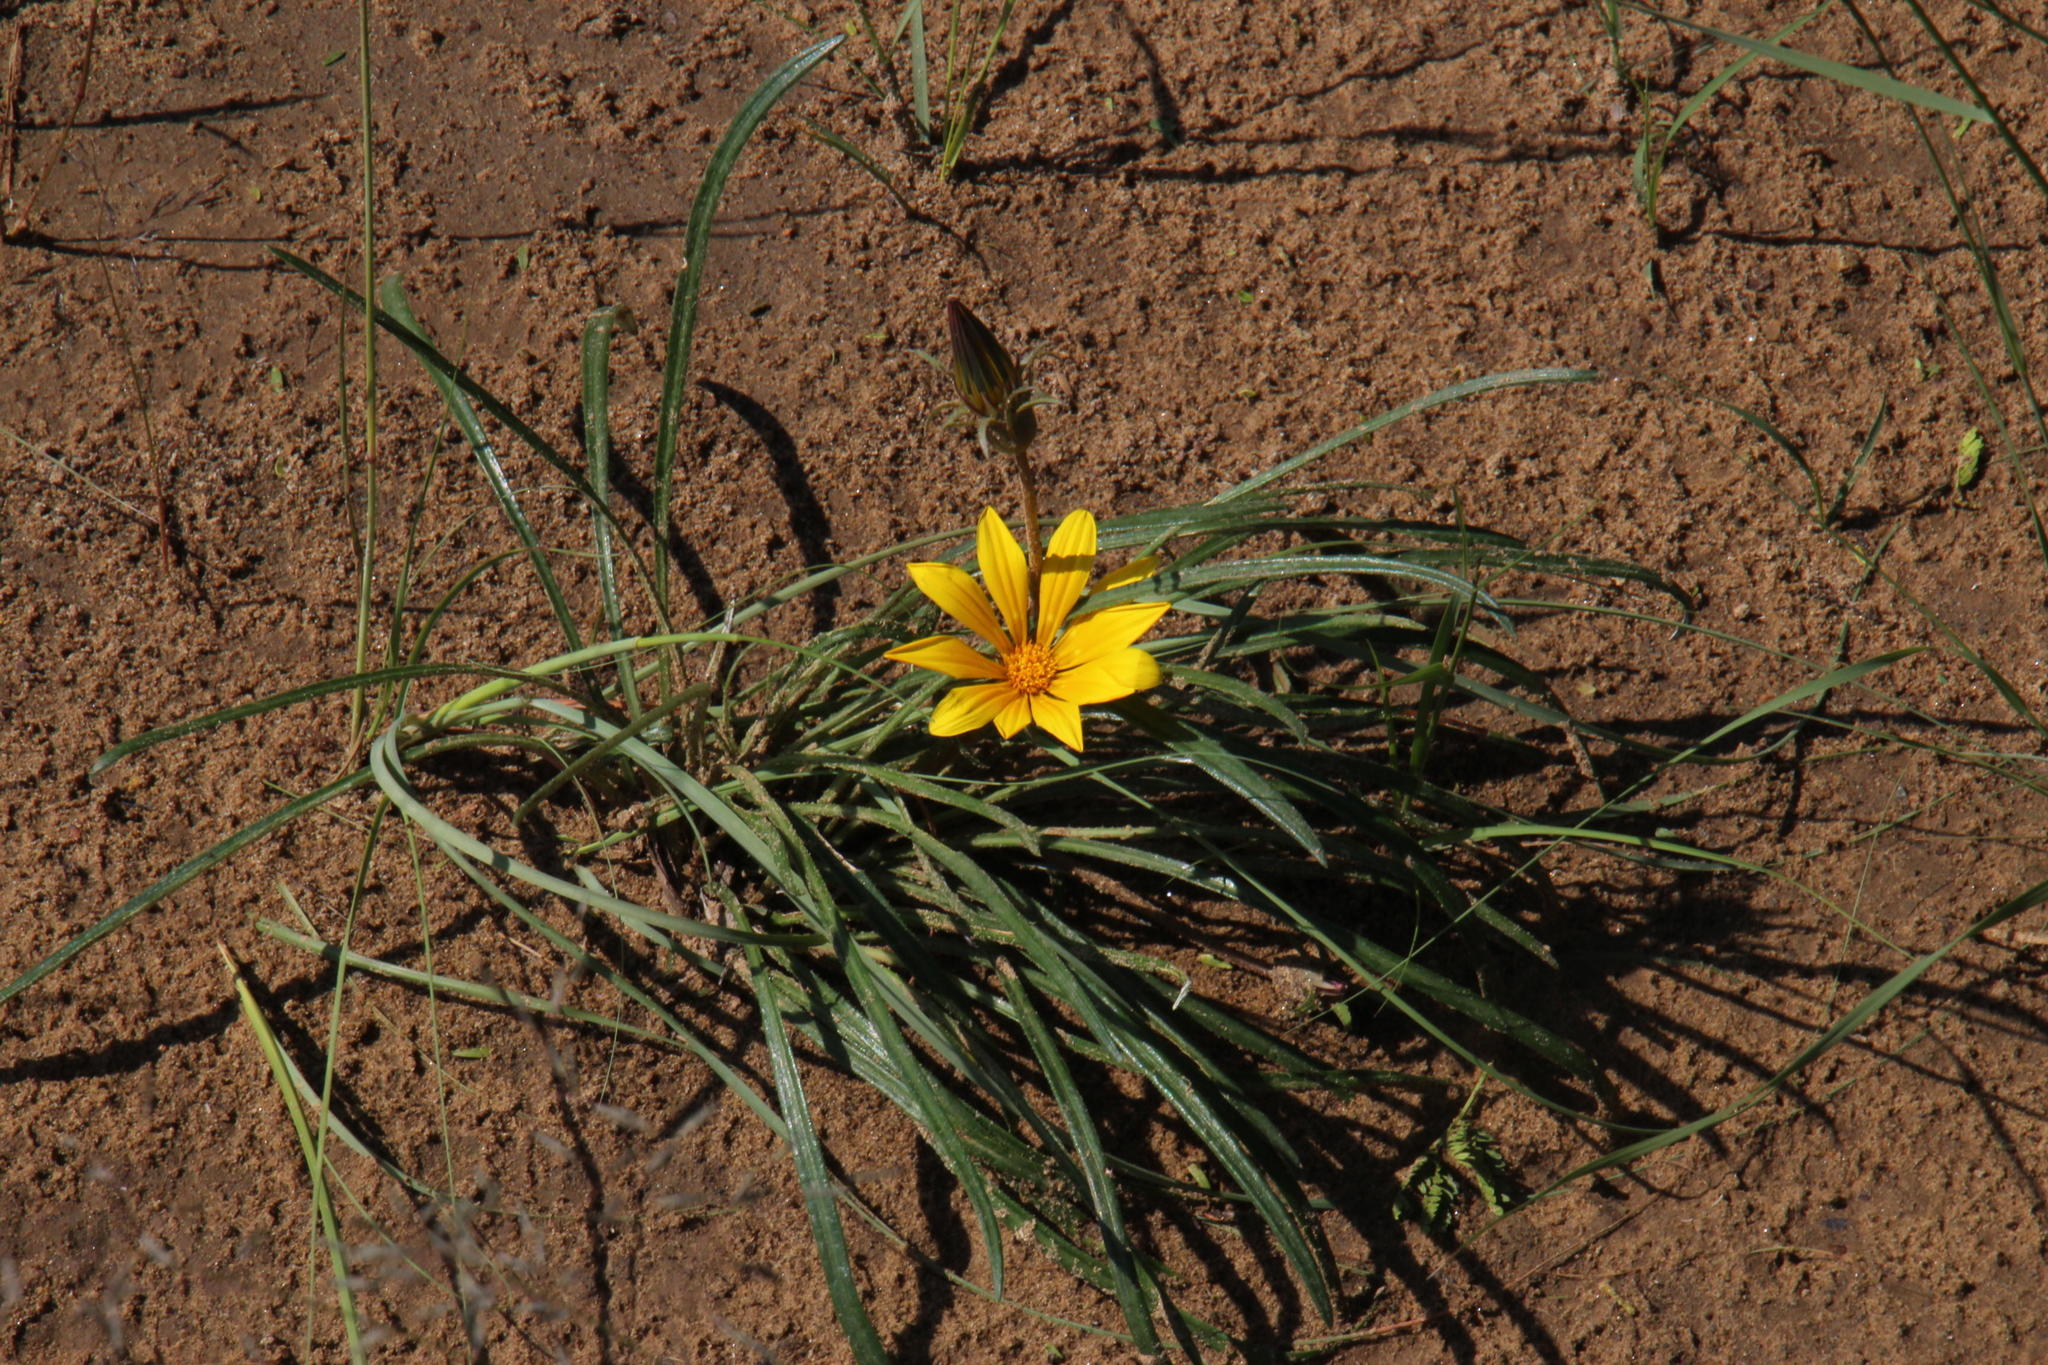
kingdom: Plantae
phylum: Tracheophyta
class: Magnoliopsida
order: Asterales
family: Asteraceae
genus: Gazania
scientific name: Gazania linearis
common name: Treasureflower
